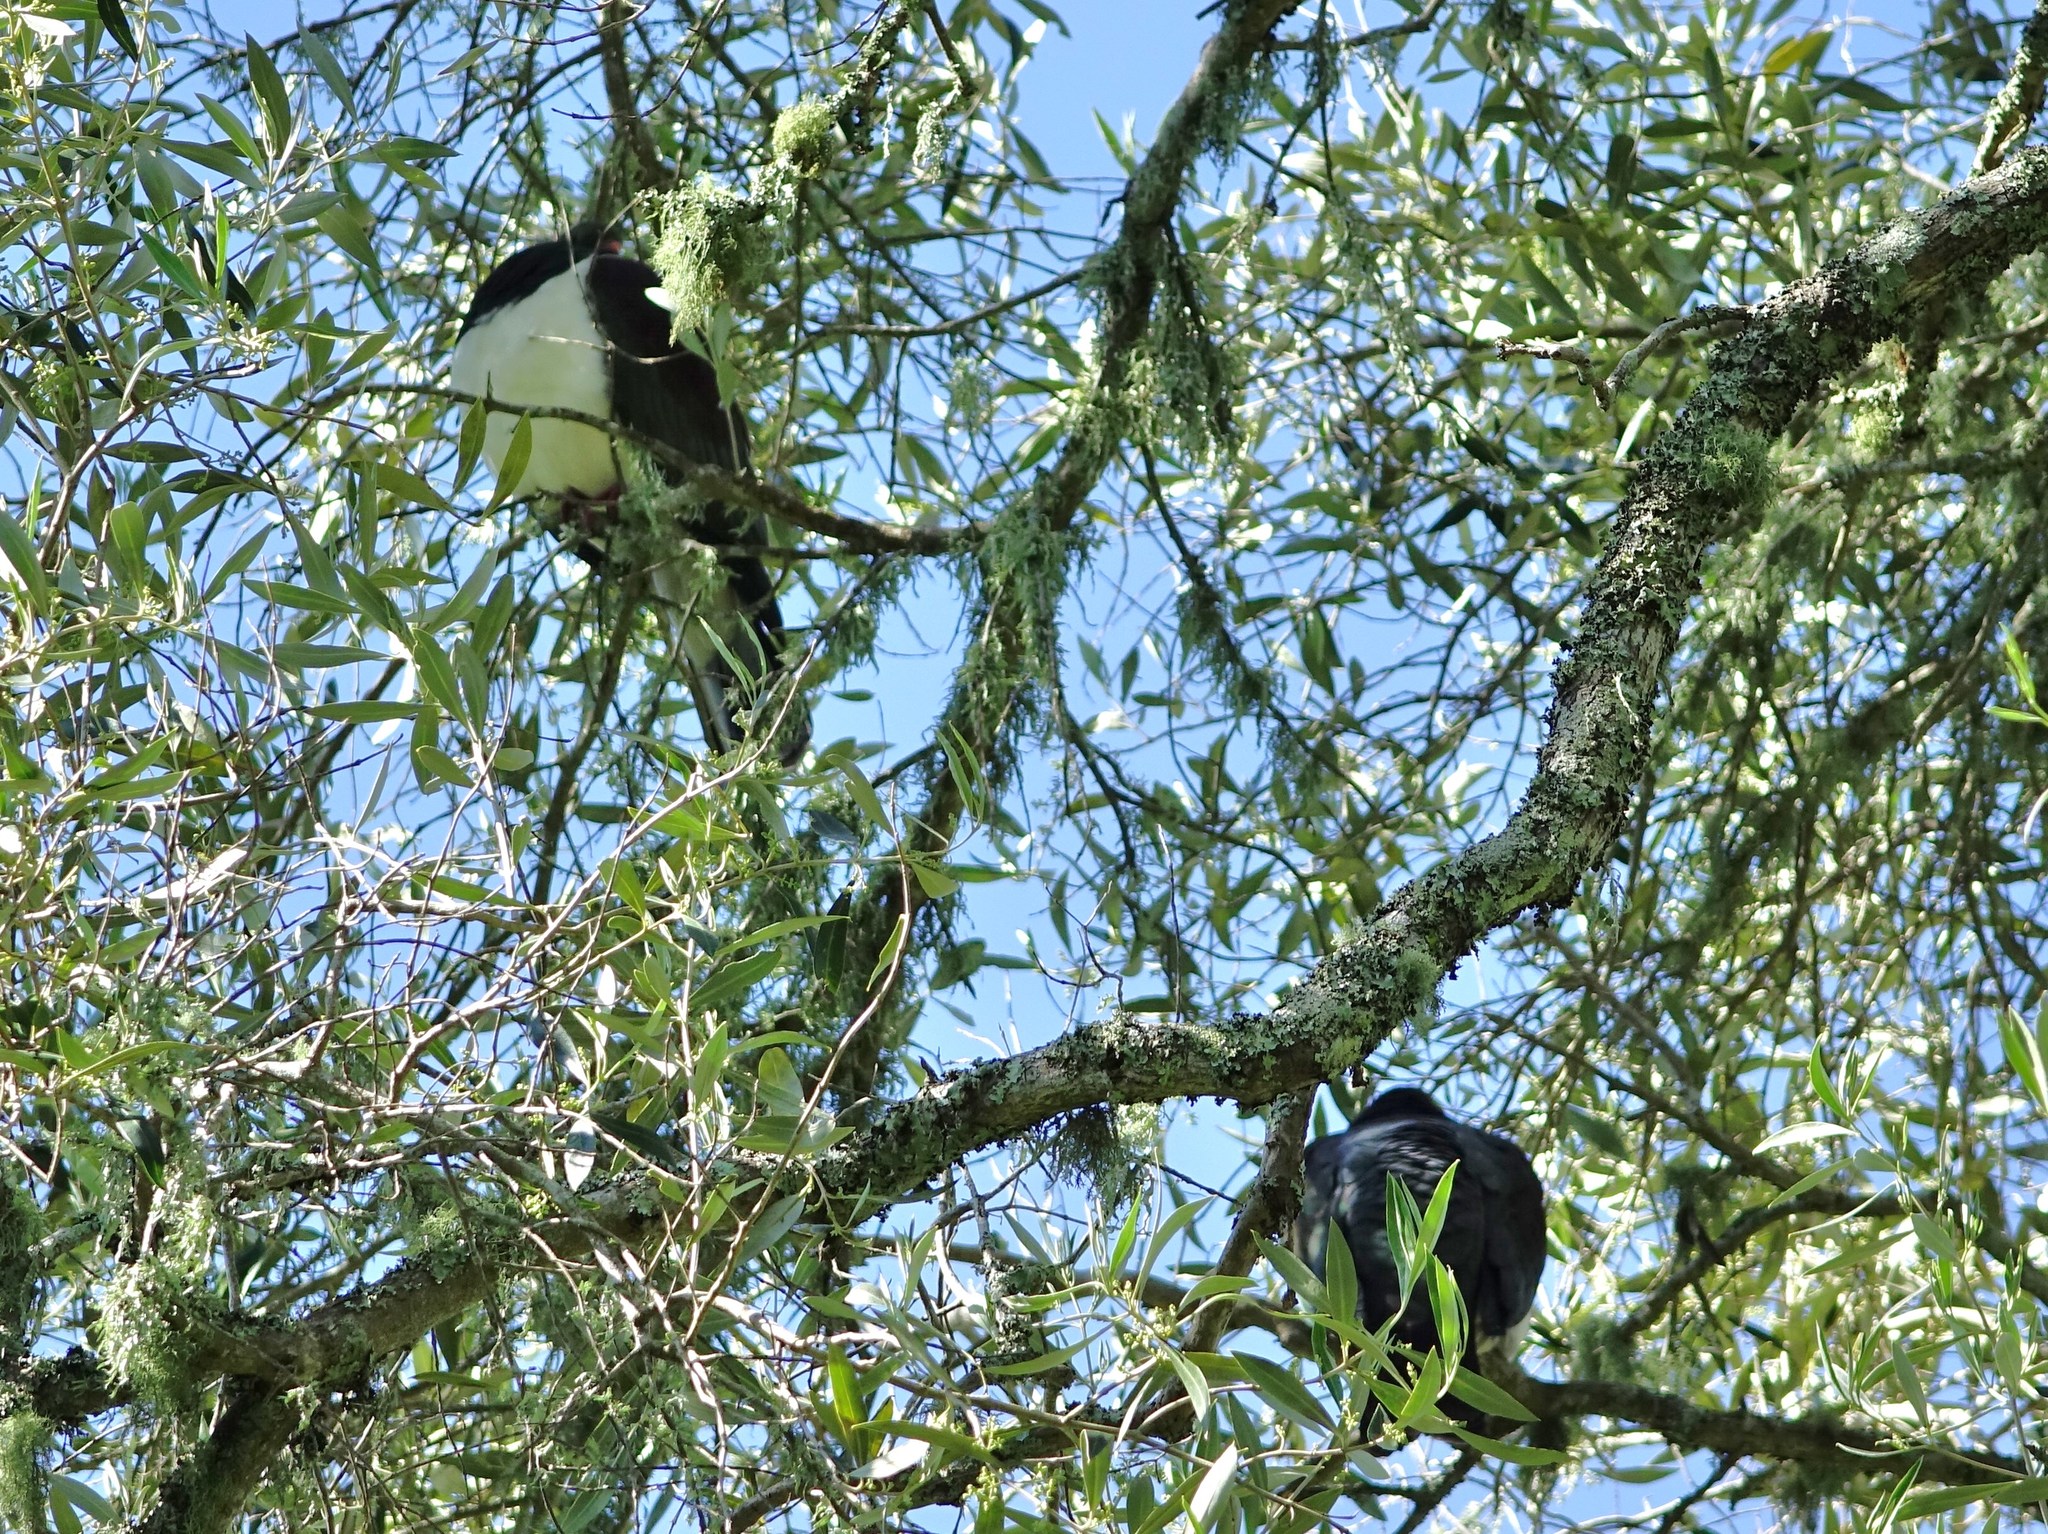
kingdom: Animalia
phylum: Chordata
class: Aves
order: Columbiformes
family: Columbidae
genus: Hemiphaga
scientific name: Hemiphaga novaeseelandiae
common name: New zealand pigeon
